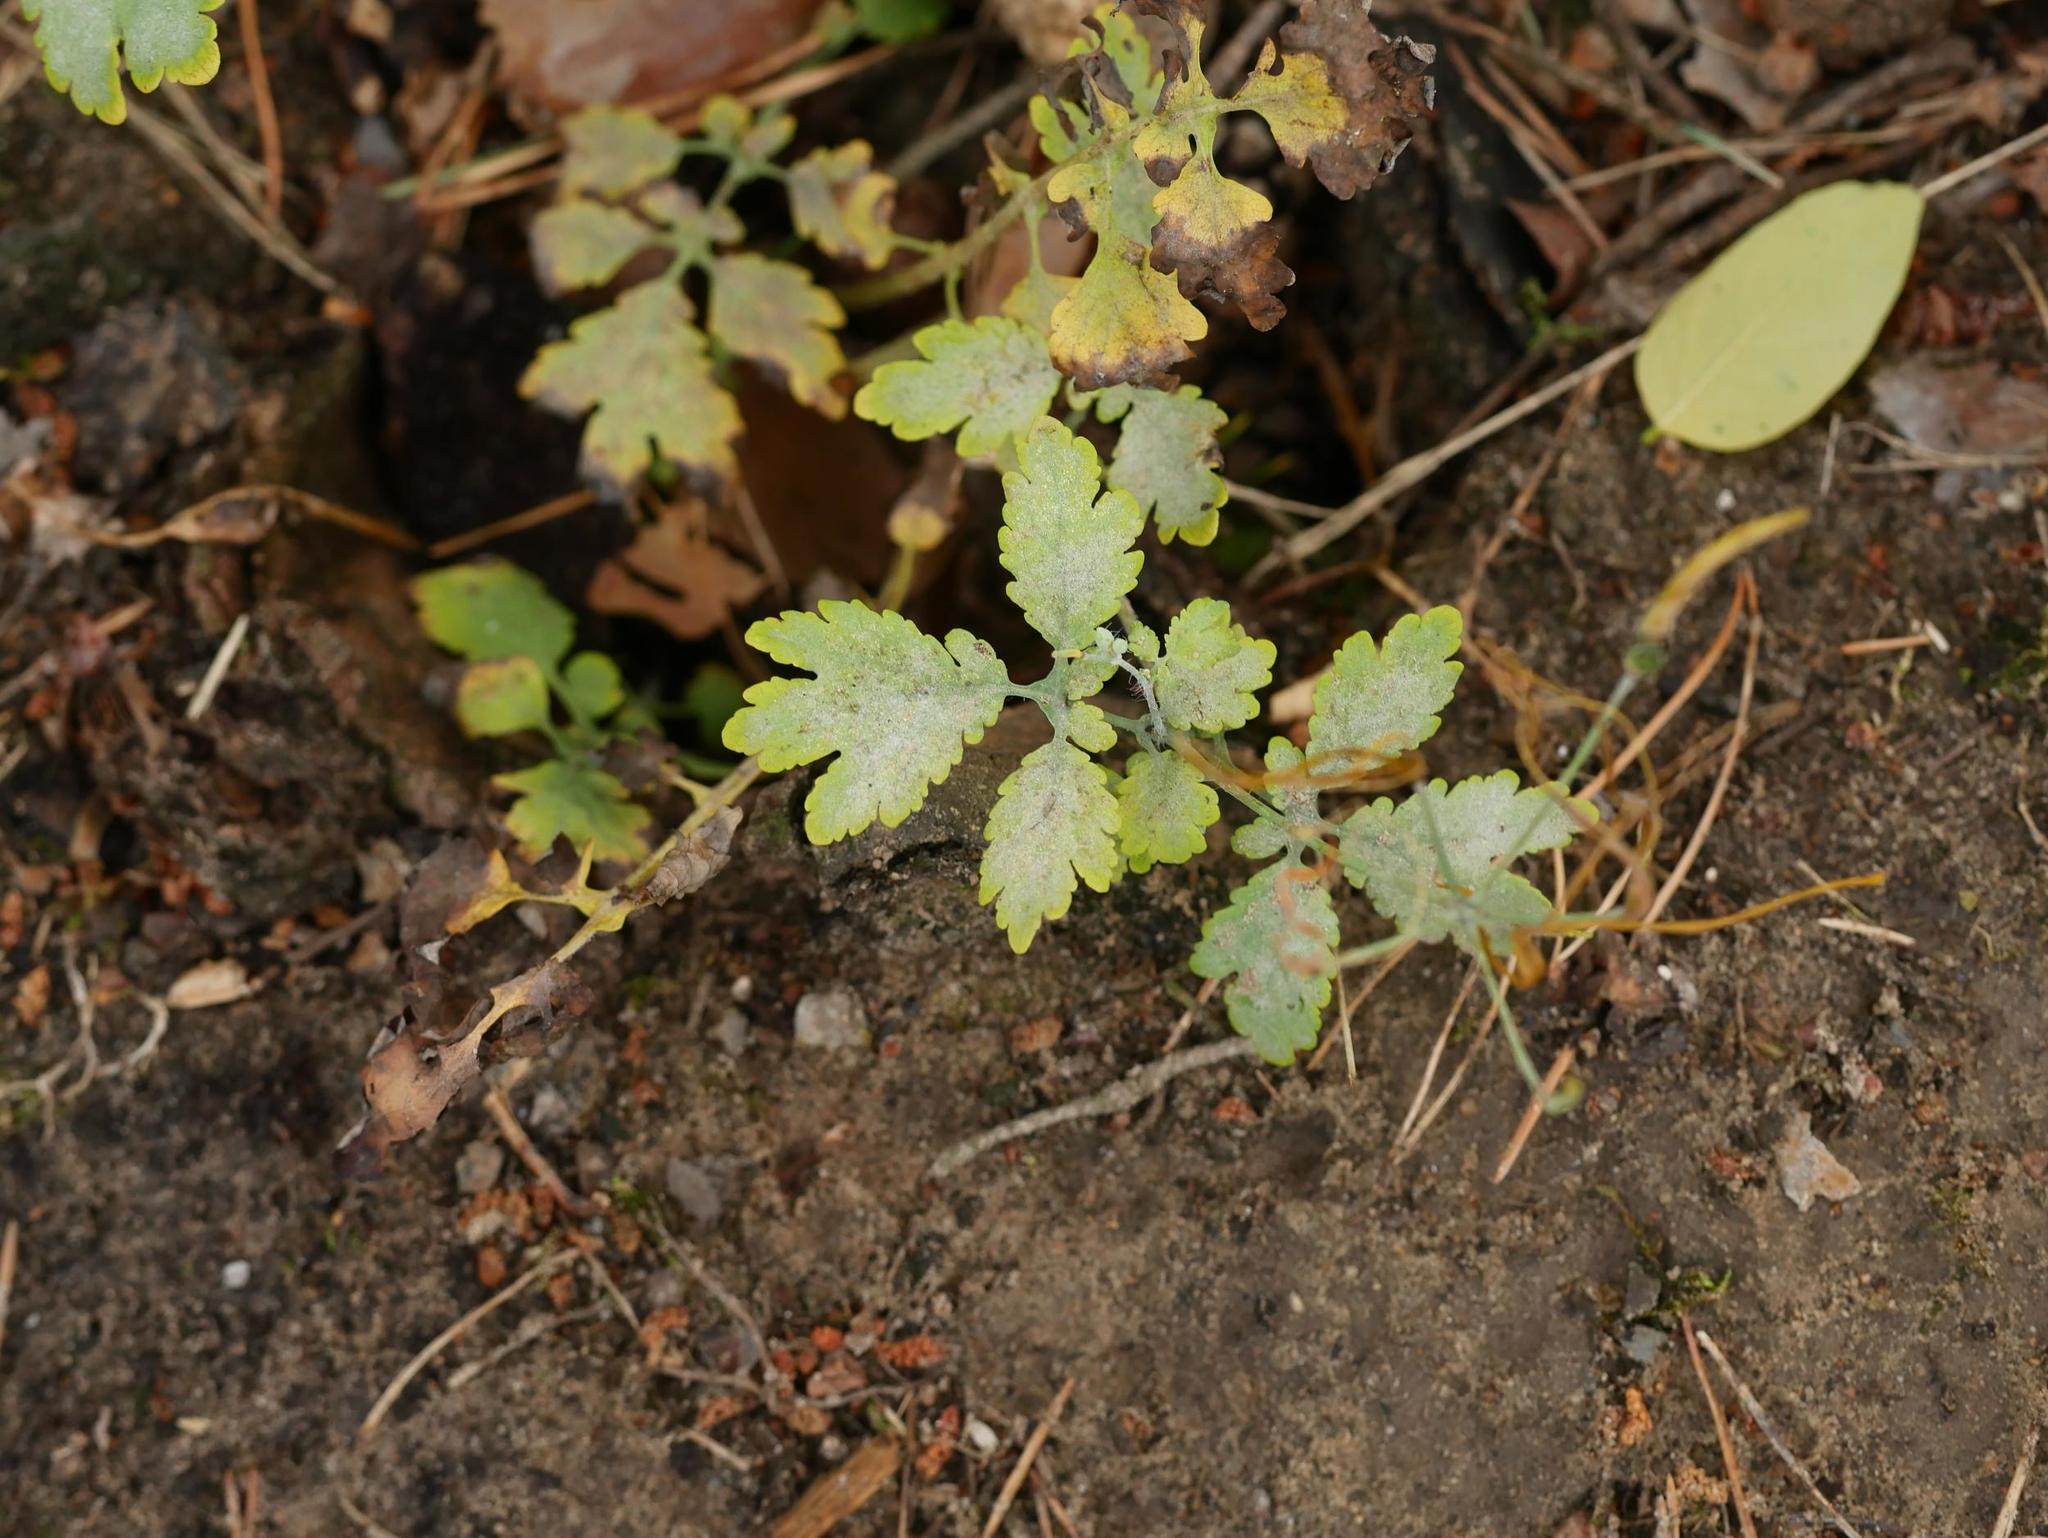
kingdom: Fungi
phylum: Ascomycota
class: Leotiomycetes
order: Helotiales
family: Erysiphaceae
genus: Erysiphe
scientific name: Erysiphe macleayae
